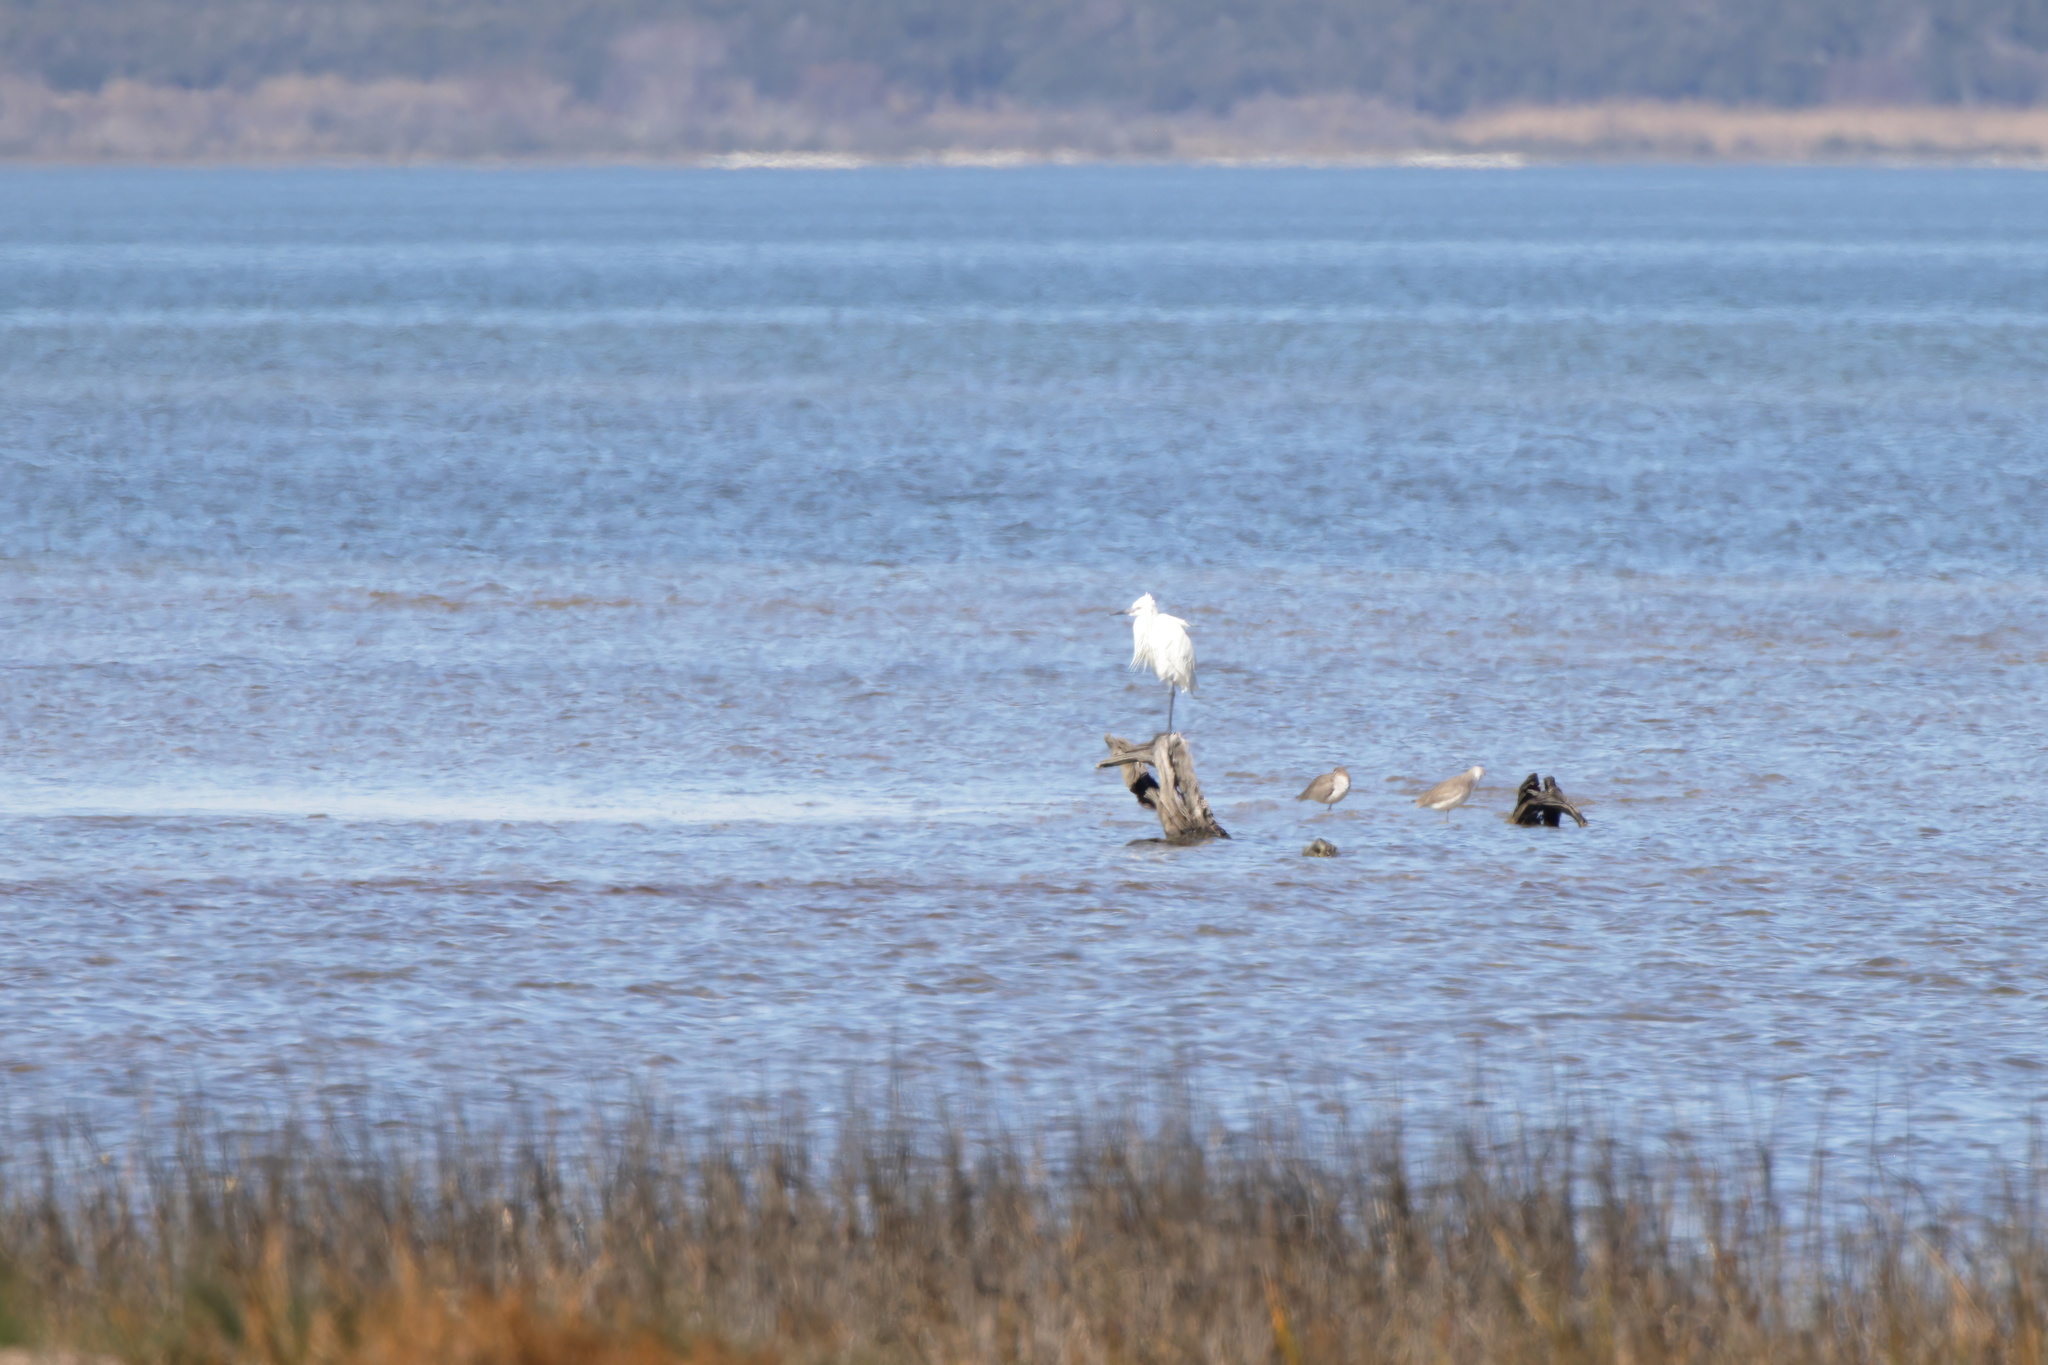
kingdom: Animalia
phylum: Chordata
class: Aves
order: Pelecaniformes
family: Ardeidae
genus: Egretta
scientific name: Egretta rufescens
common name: Reddish egret
